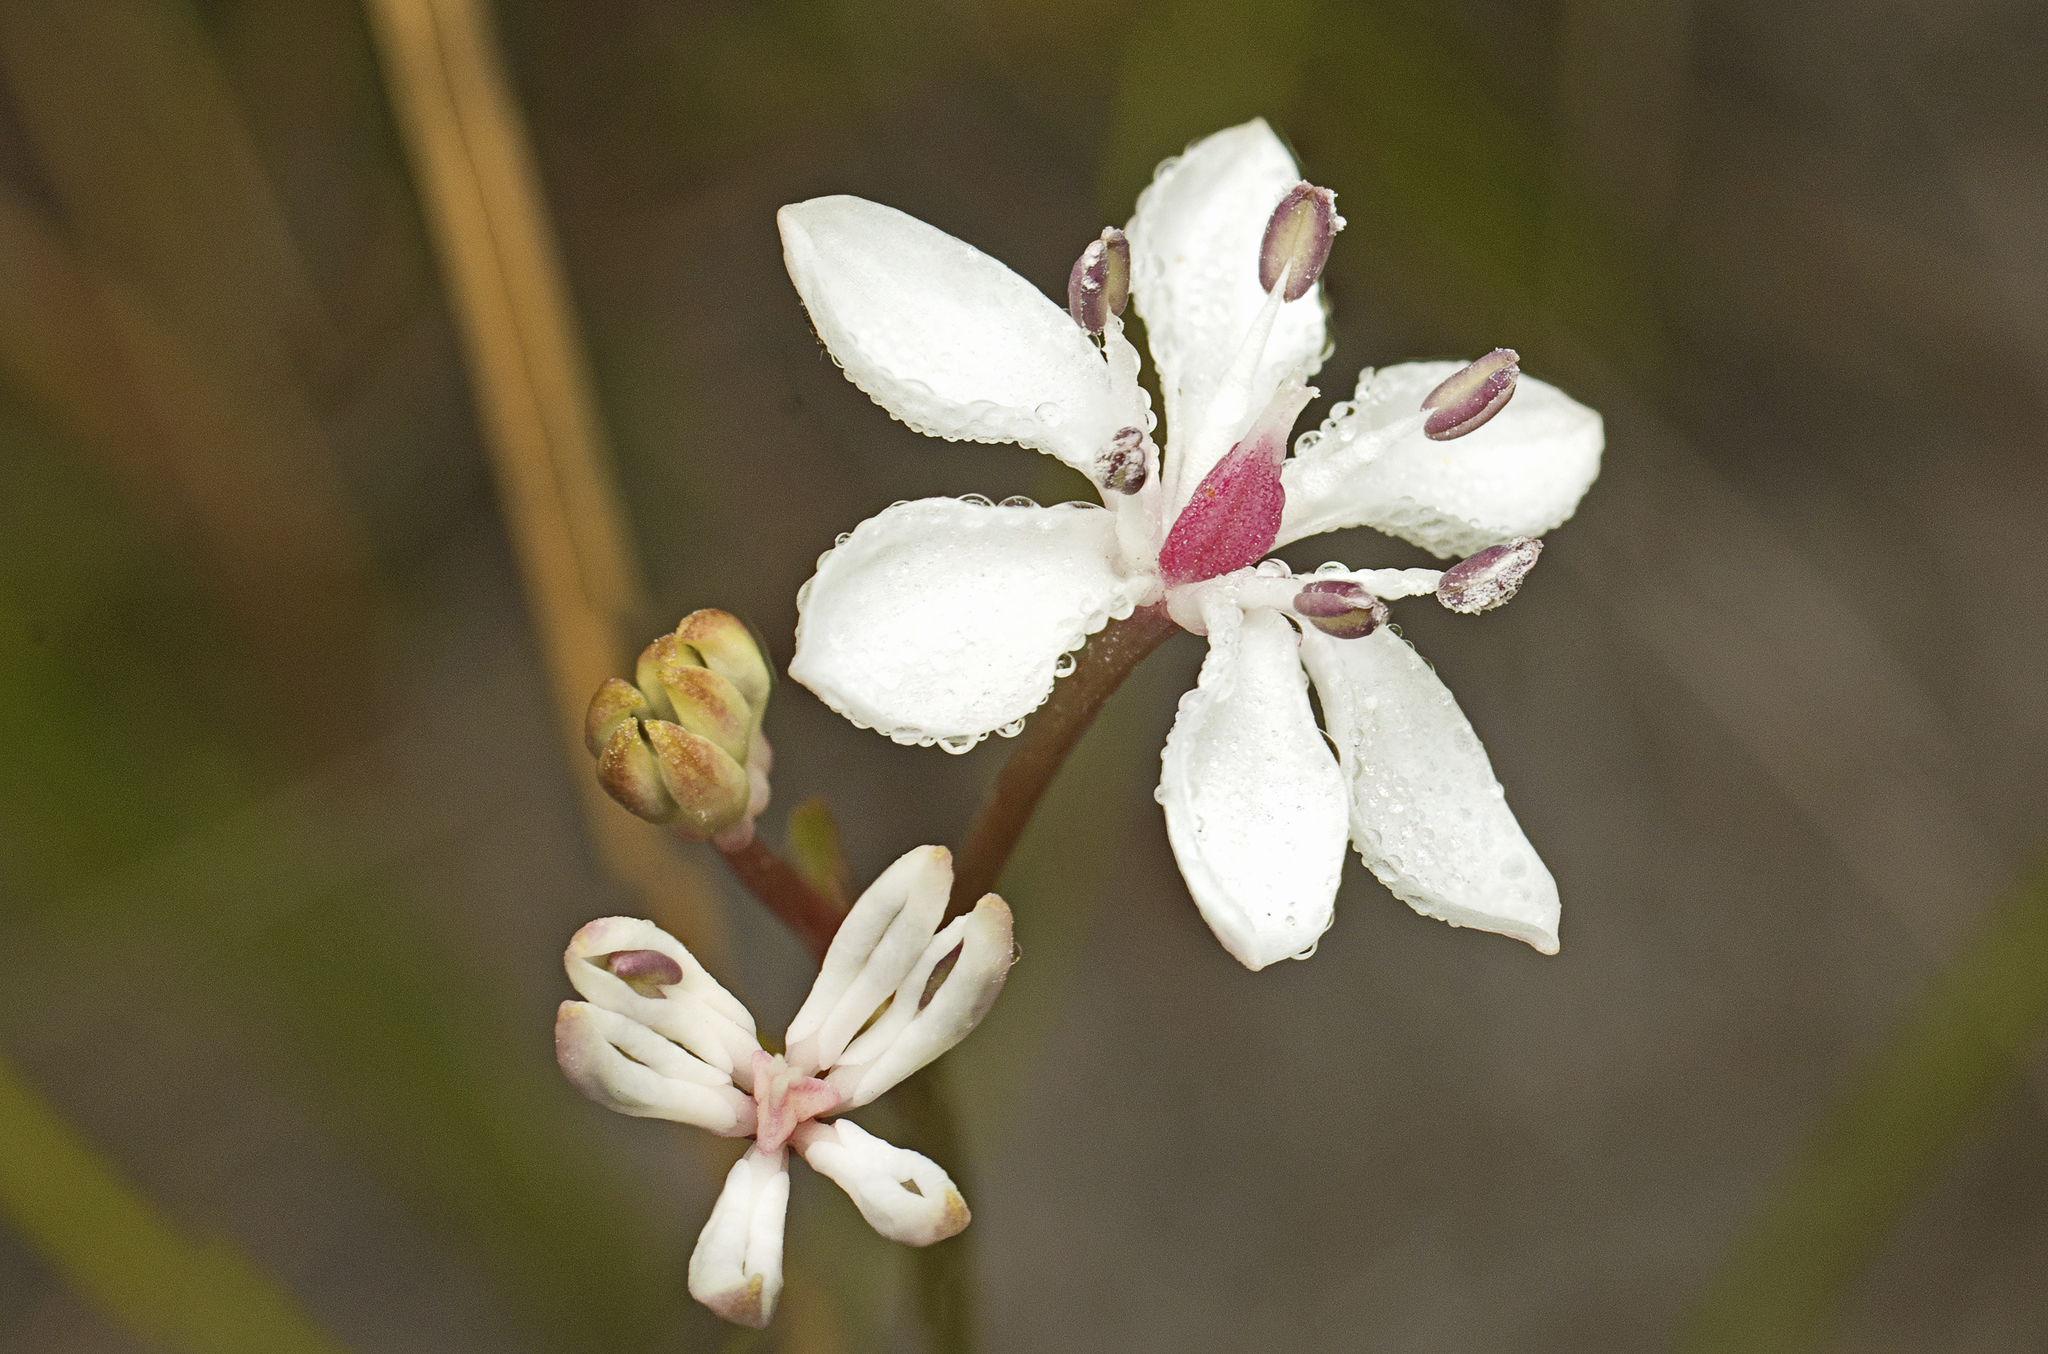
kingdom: Plantae
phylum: Tracheophyta
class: Liliopsida
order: Liliales
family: Colchicaceae
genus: Burchardia
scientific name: Burchardia umbellata
